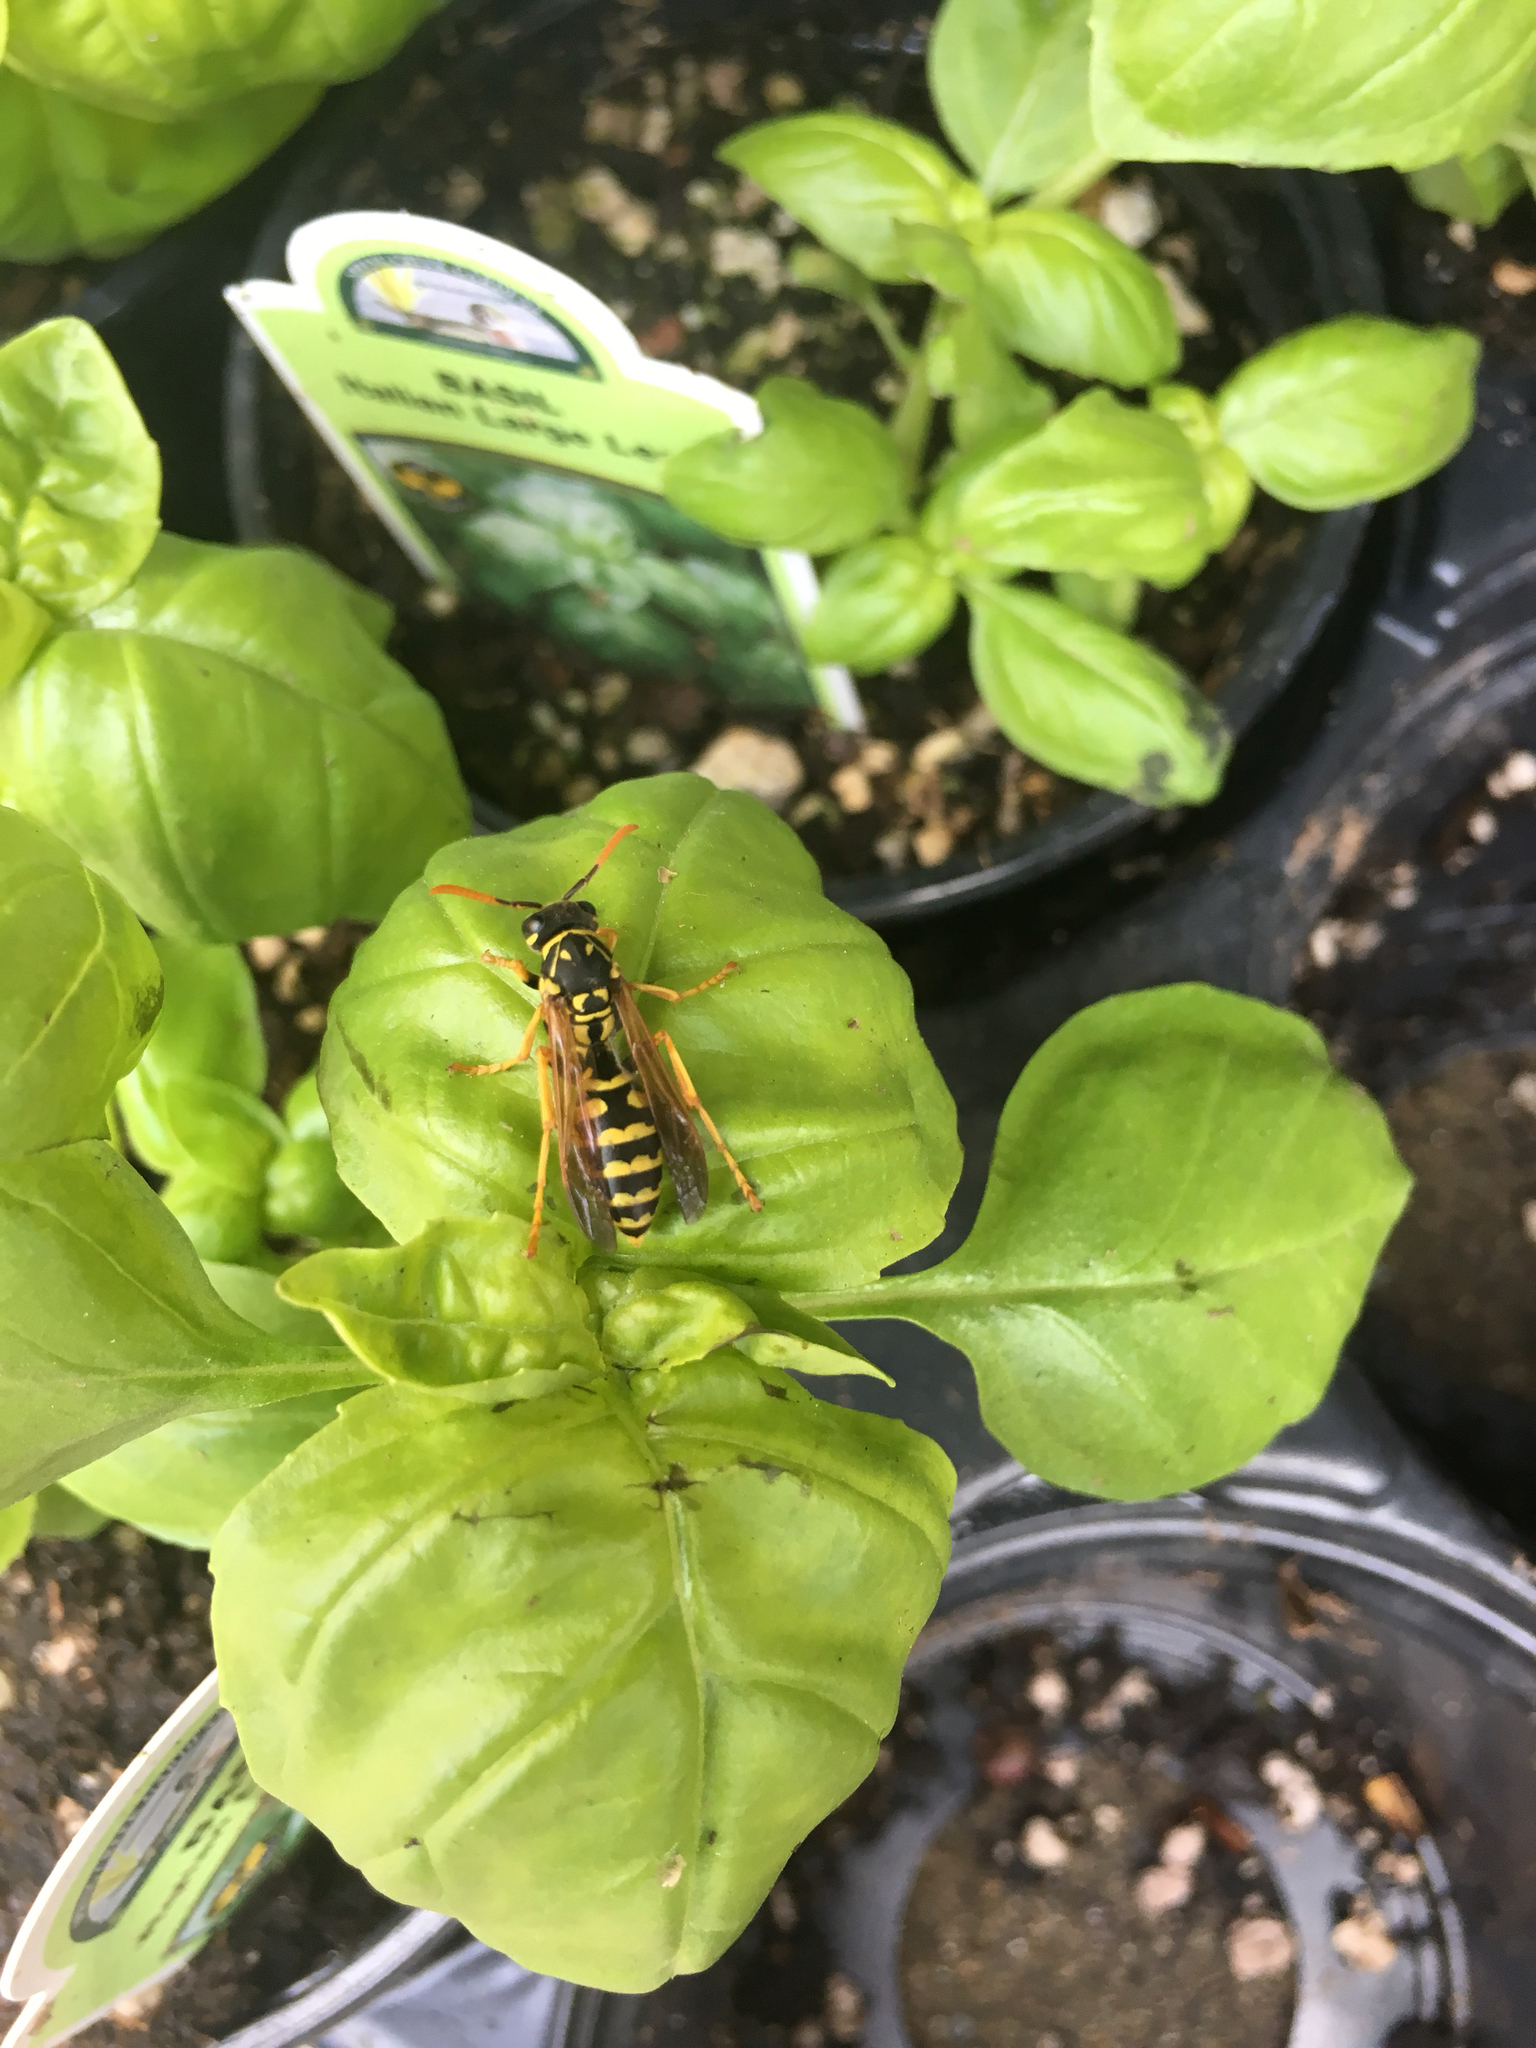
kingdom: Animalia
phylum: Arthropoda
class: Insecta
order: Hymenoptera
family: Eumenidae
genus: Polistes
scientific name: Polistes dominula
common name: Paper wasp
